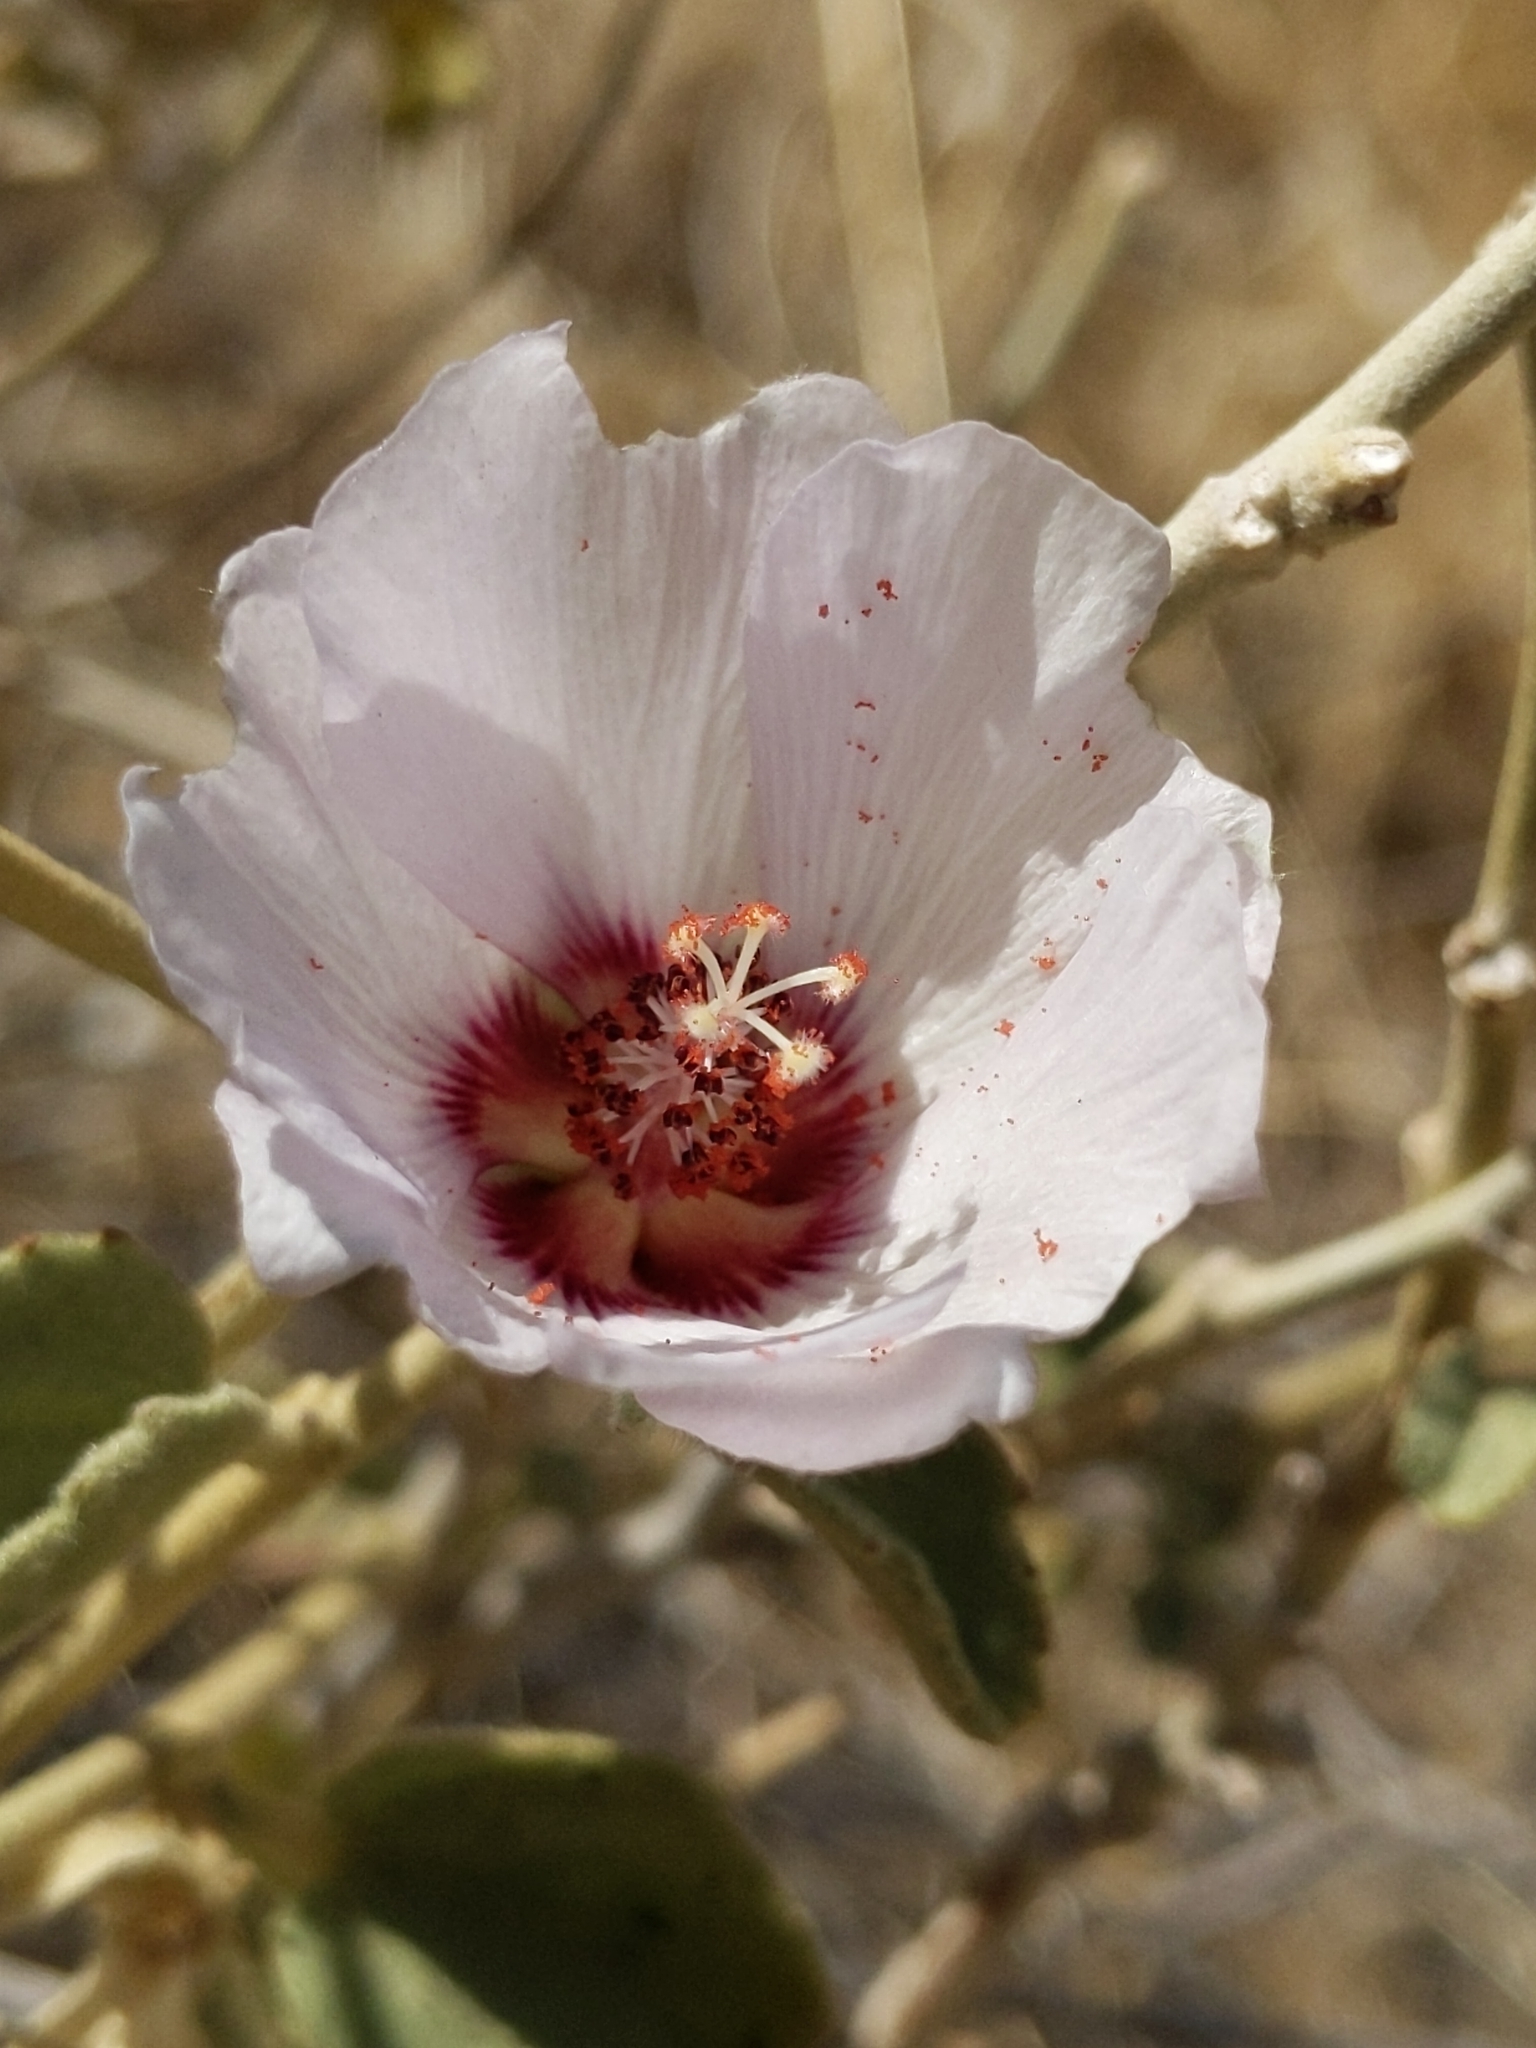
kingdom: Plantae
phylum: Tracheophyta
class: Magnoliopsida
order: Malvales
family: Malvaceae
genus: Hibiscus
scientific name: Hibiscus denudatus
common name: Paleface
